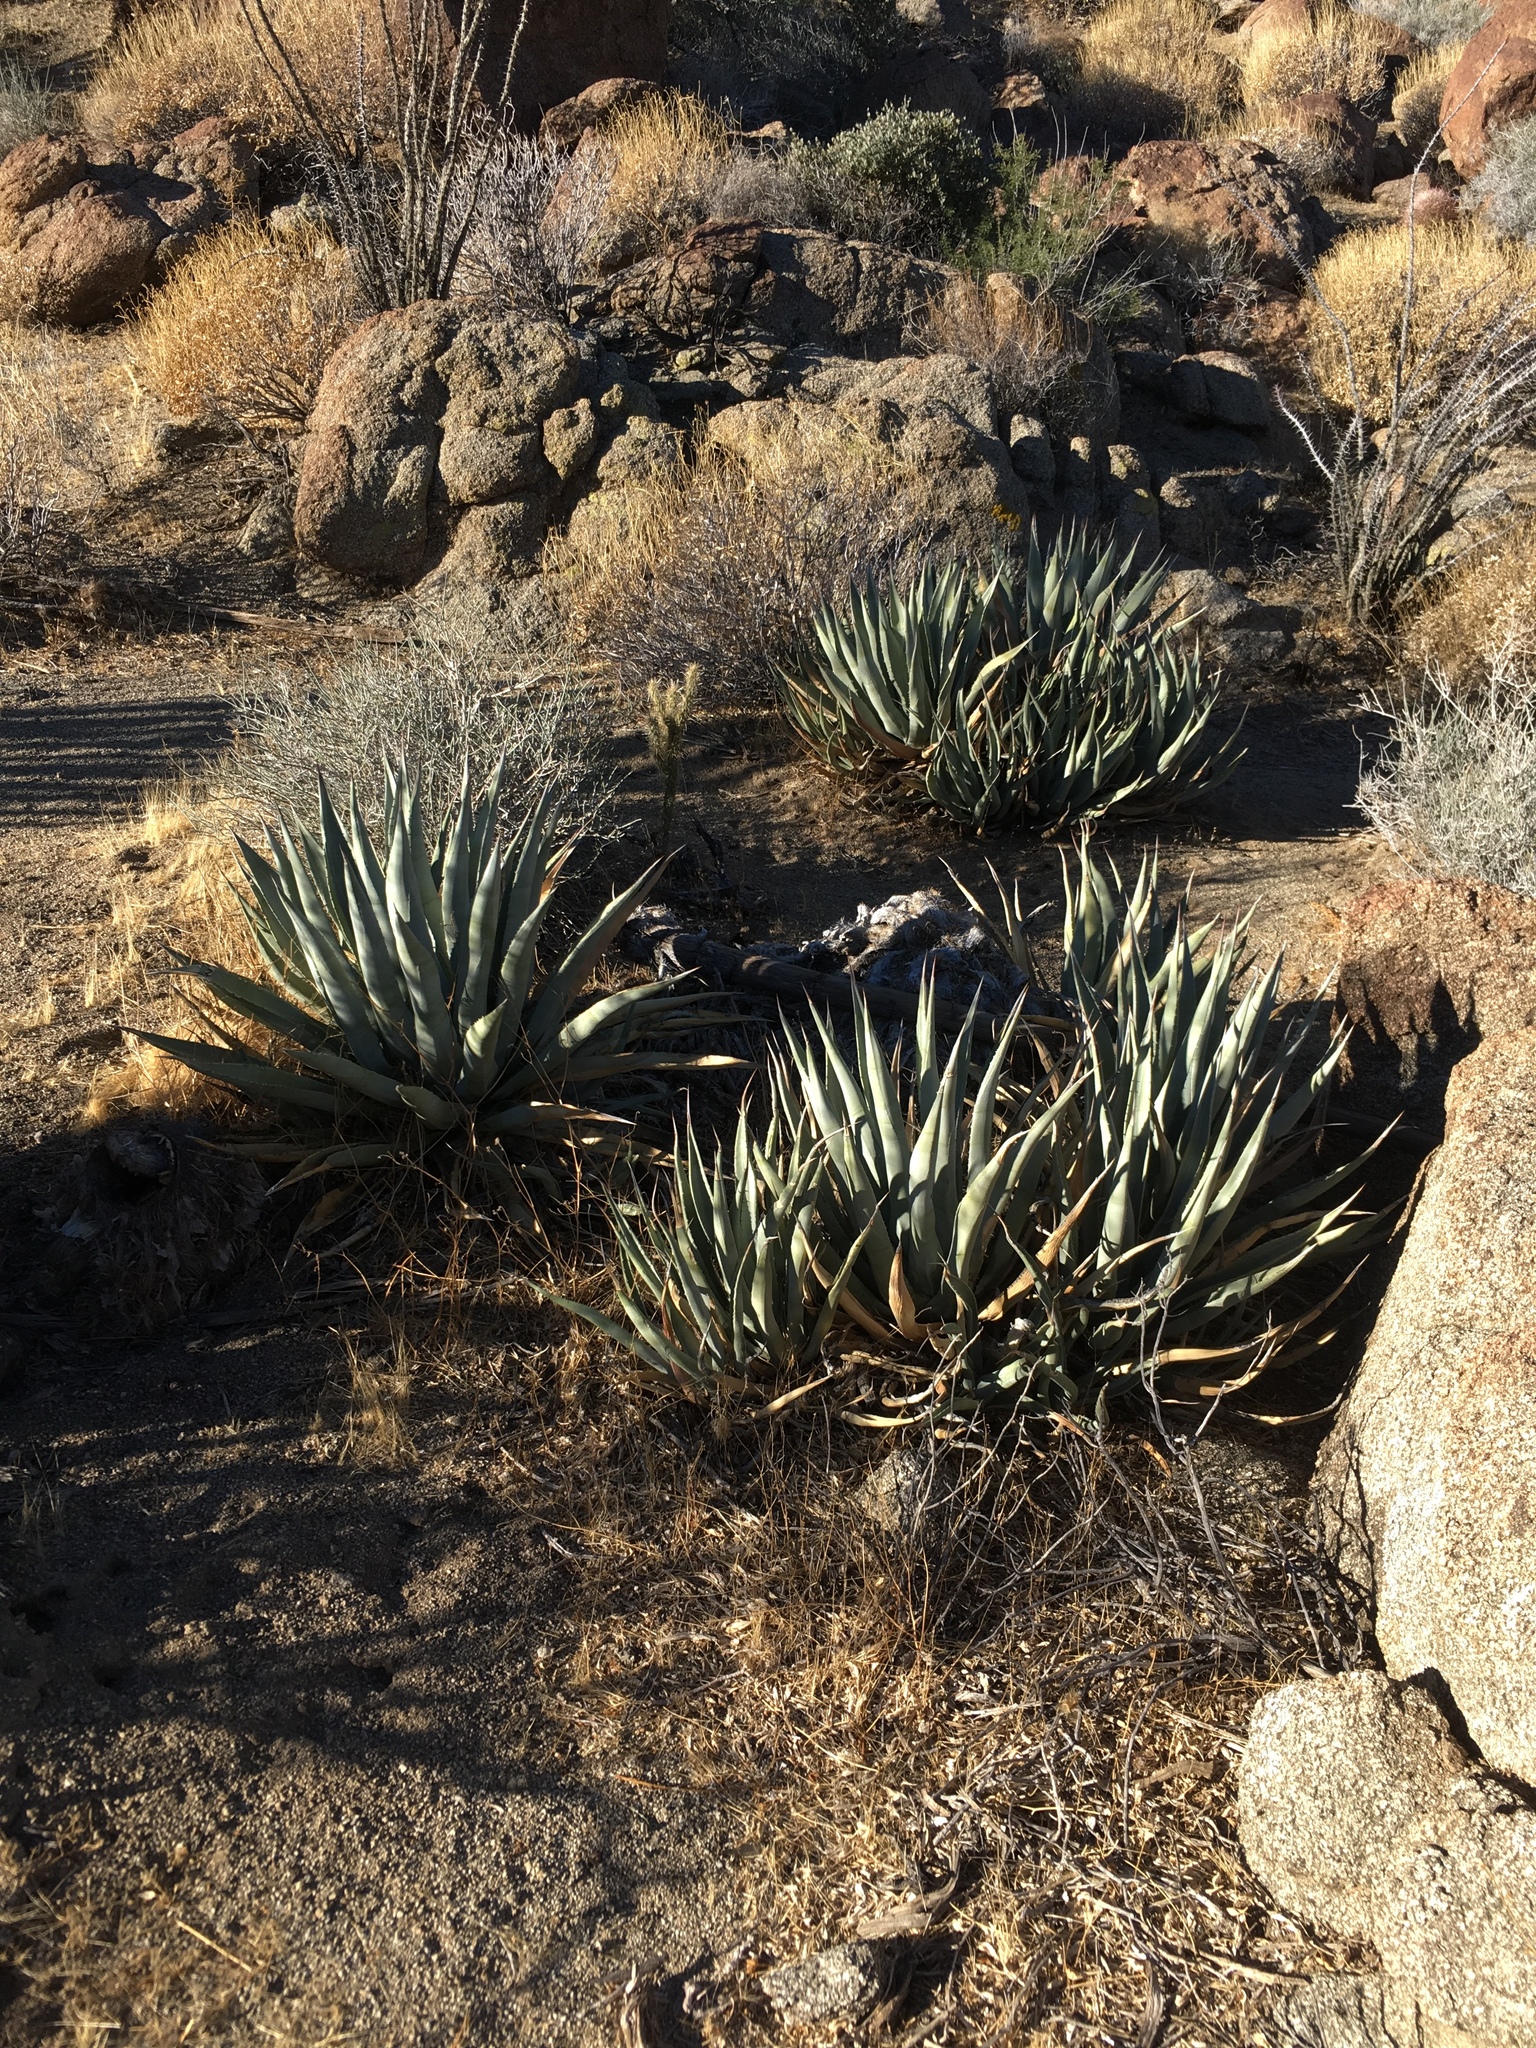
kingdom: Plantae
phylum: Tracheophyta
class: Liliopsida
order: Asparagales
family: Asparagaceae
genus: Agave
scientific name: Agave deserti
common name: Desert agave
